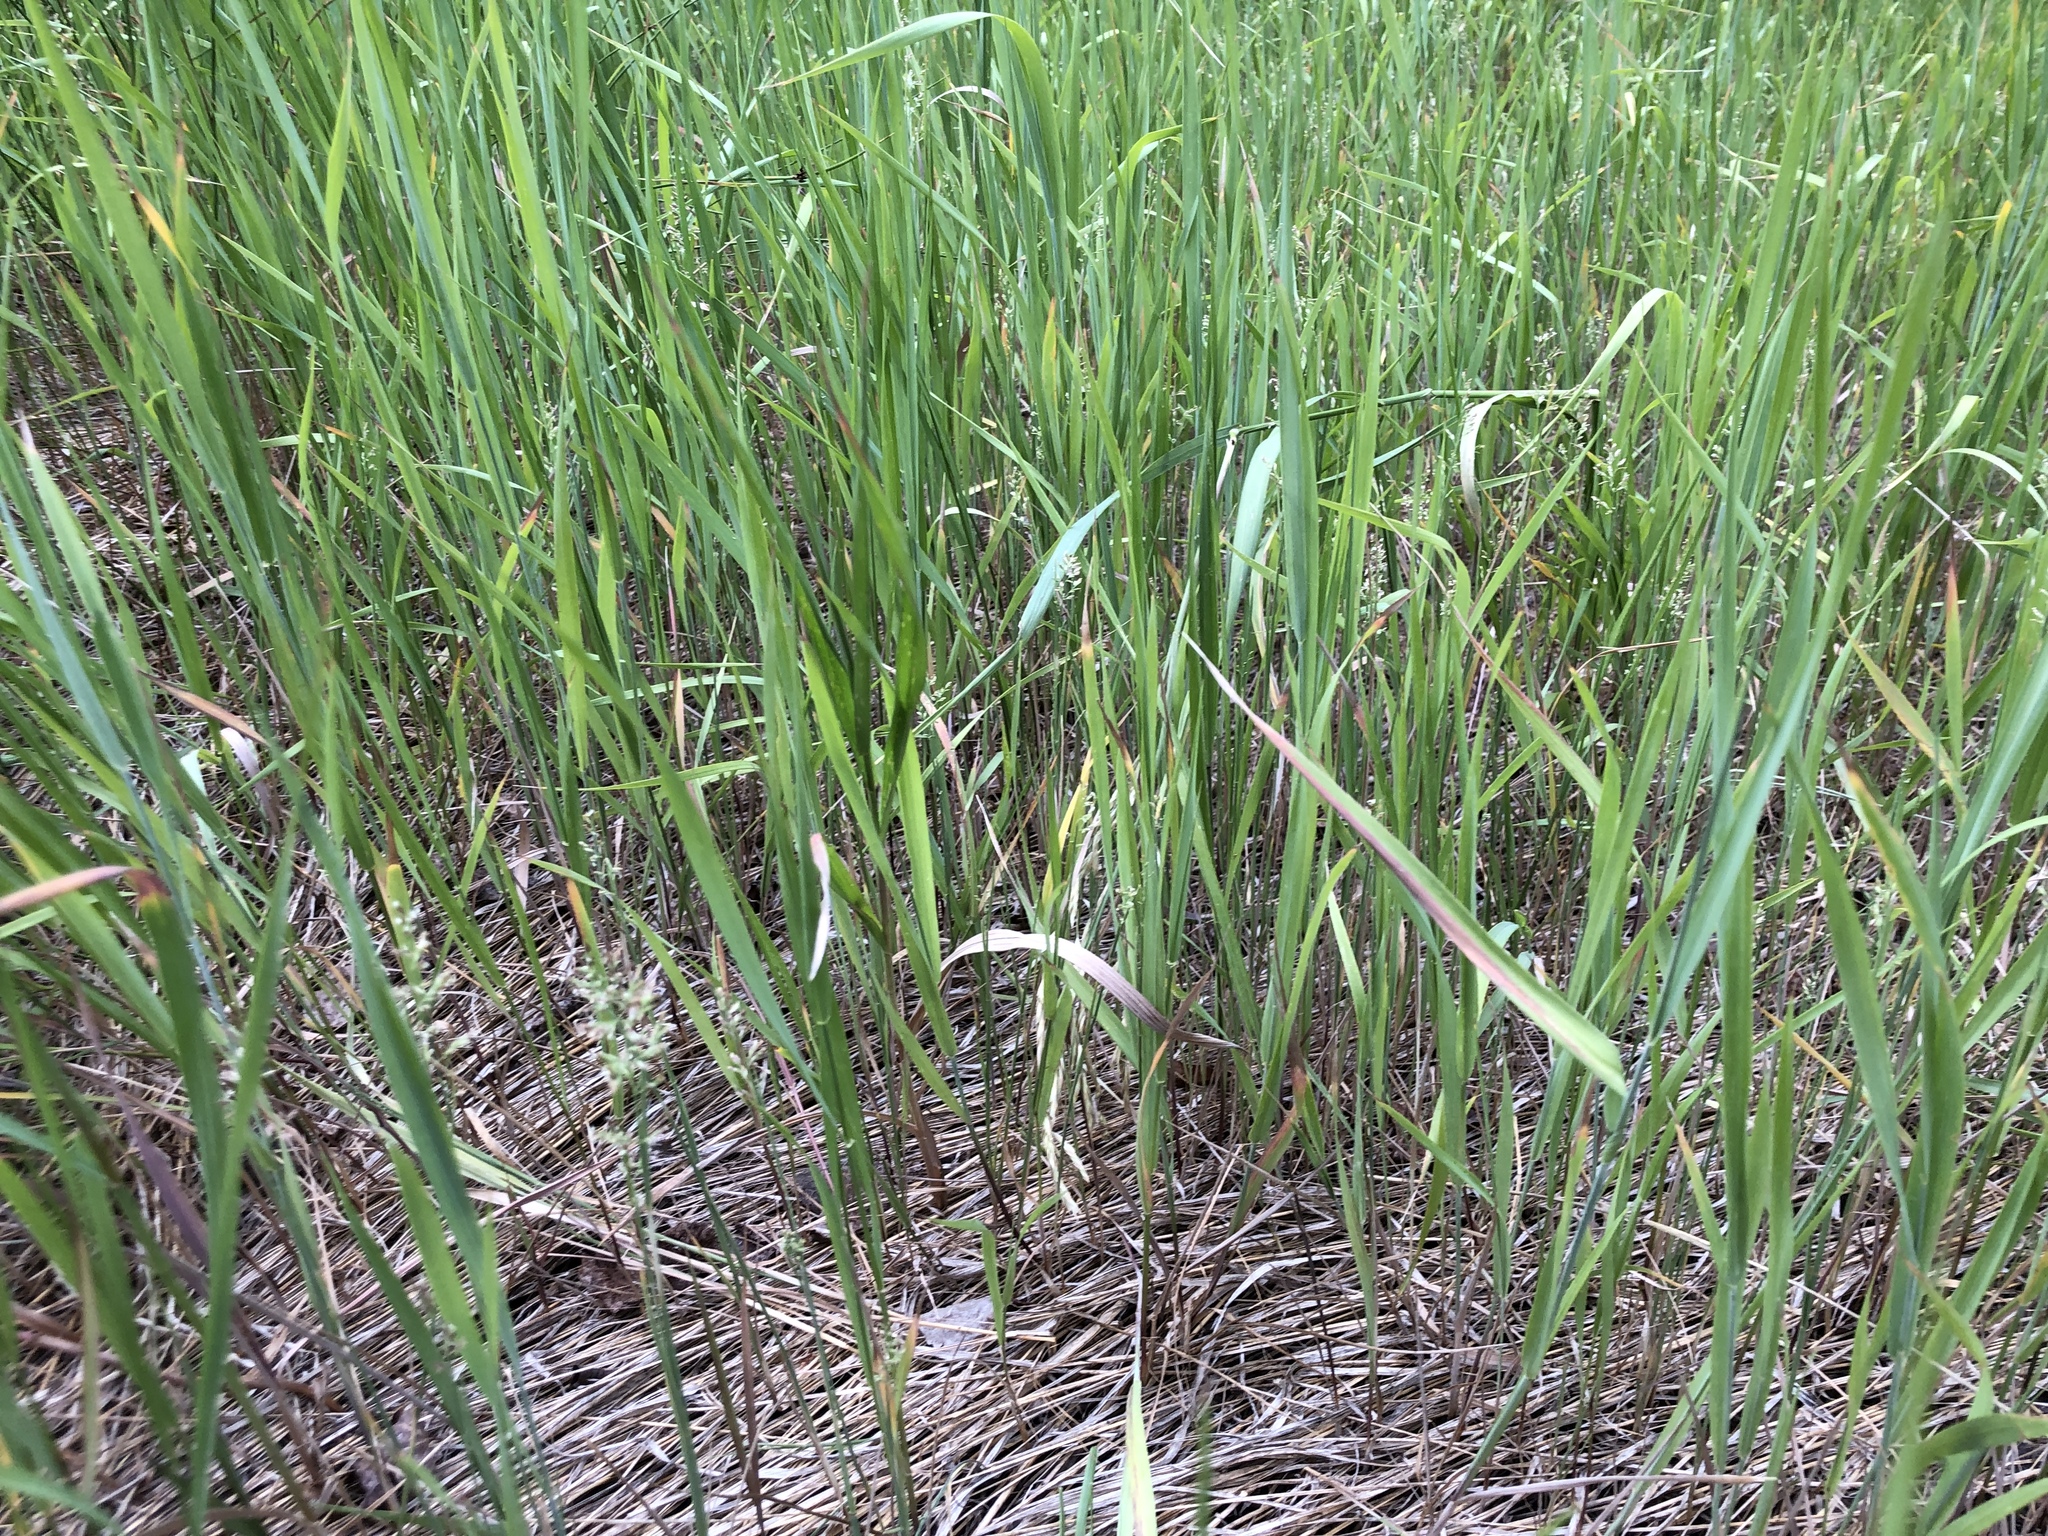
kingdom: Plantae
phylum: Tracheophyta
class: Liliopsida
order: Poales
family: Poaceae
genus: Poa
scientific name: Poa compressa
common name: Canada bluegrass
